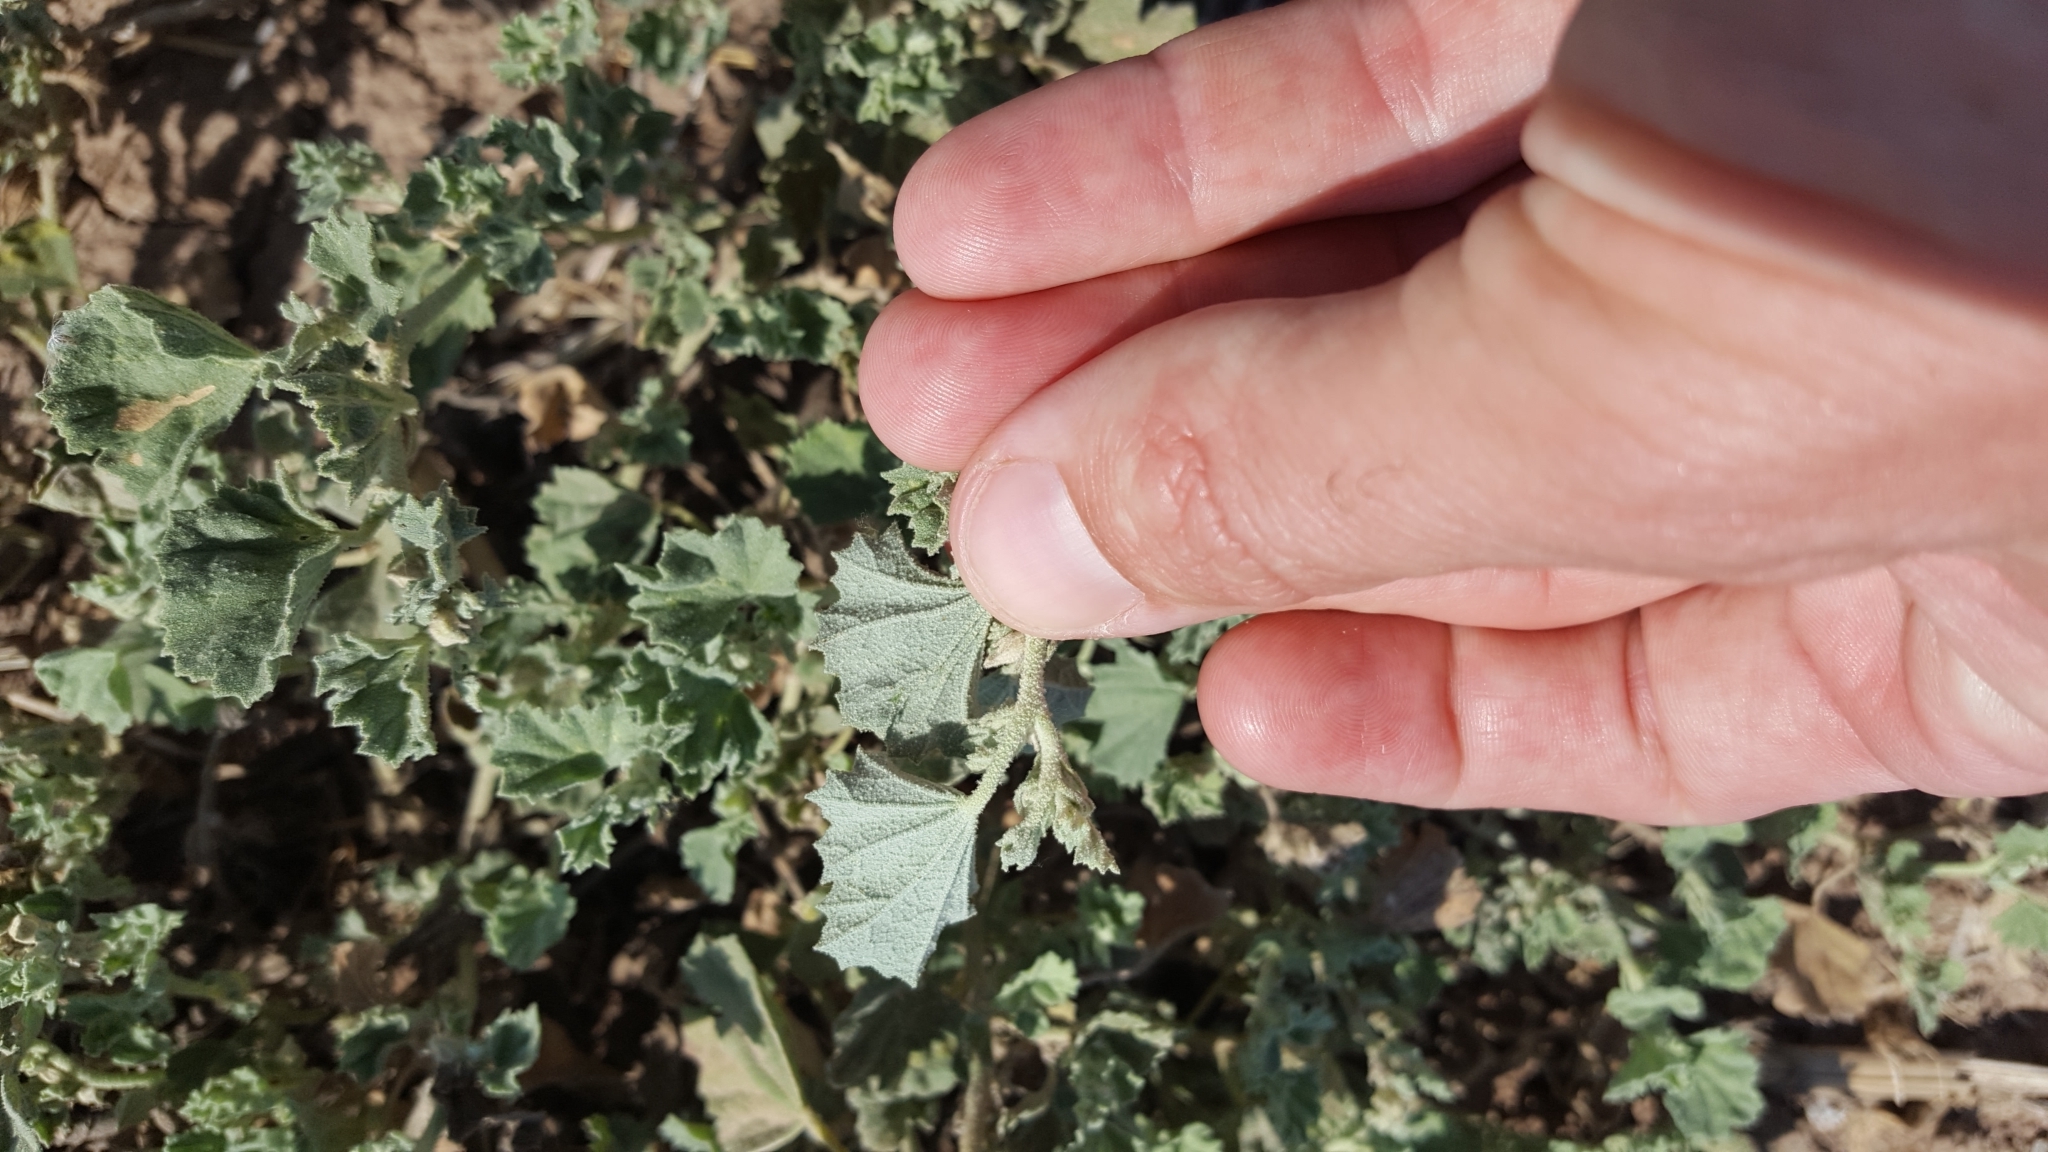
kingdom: Plantae
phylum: Tracheophyta
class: Magnoliopsida
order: Malvales
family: Malvaceae
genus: Malvella
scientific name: Malvella leprosa
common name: Alkali-mallow
